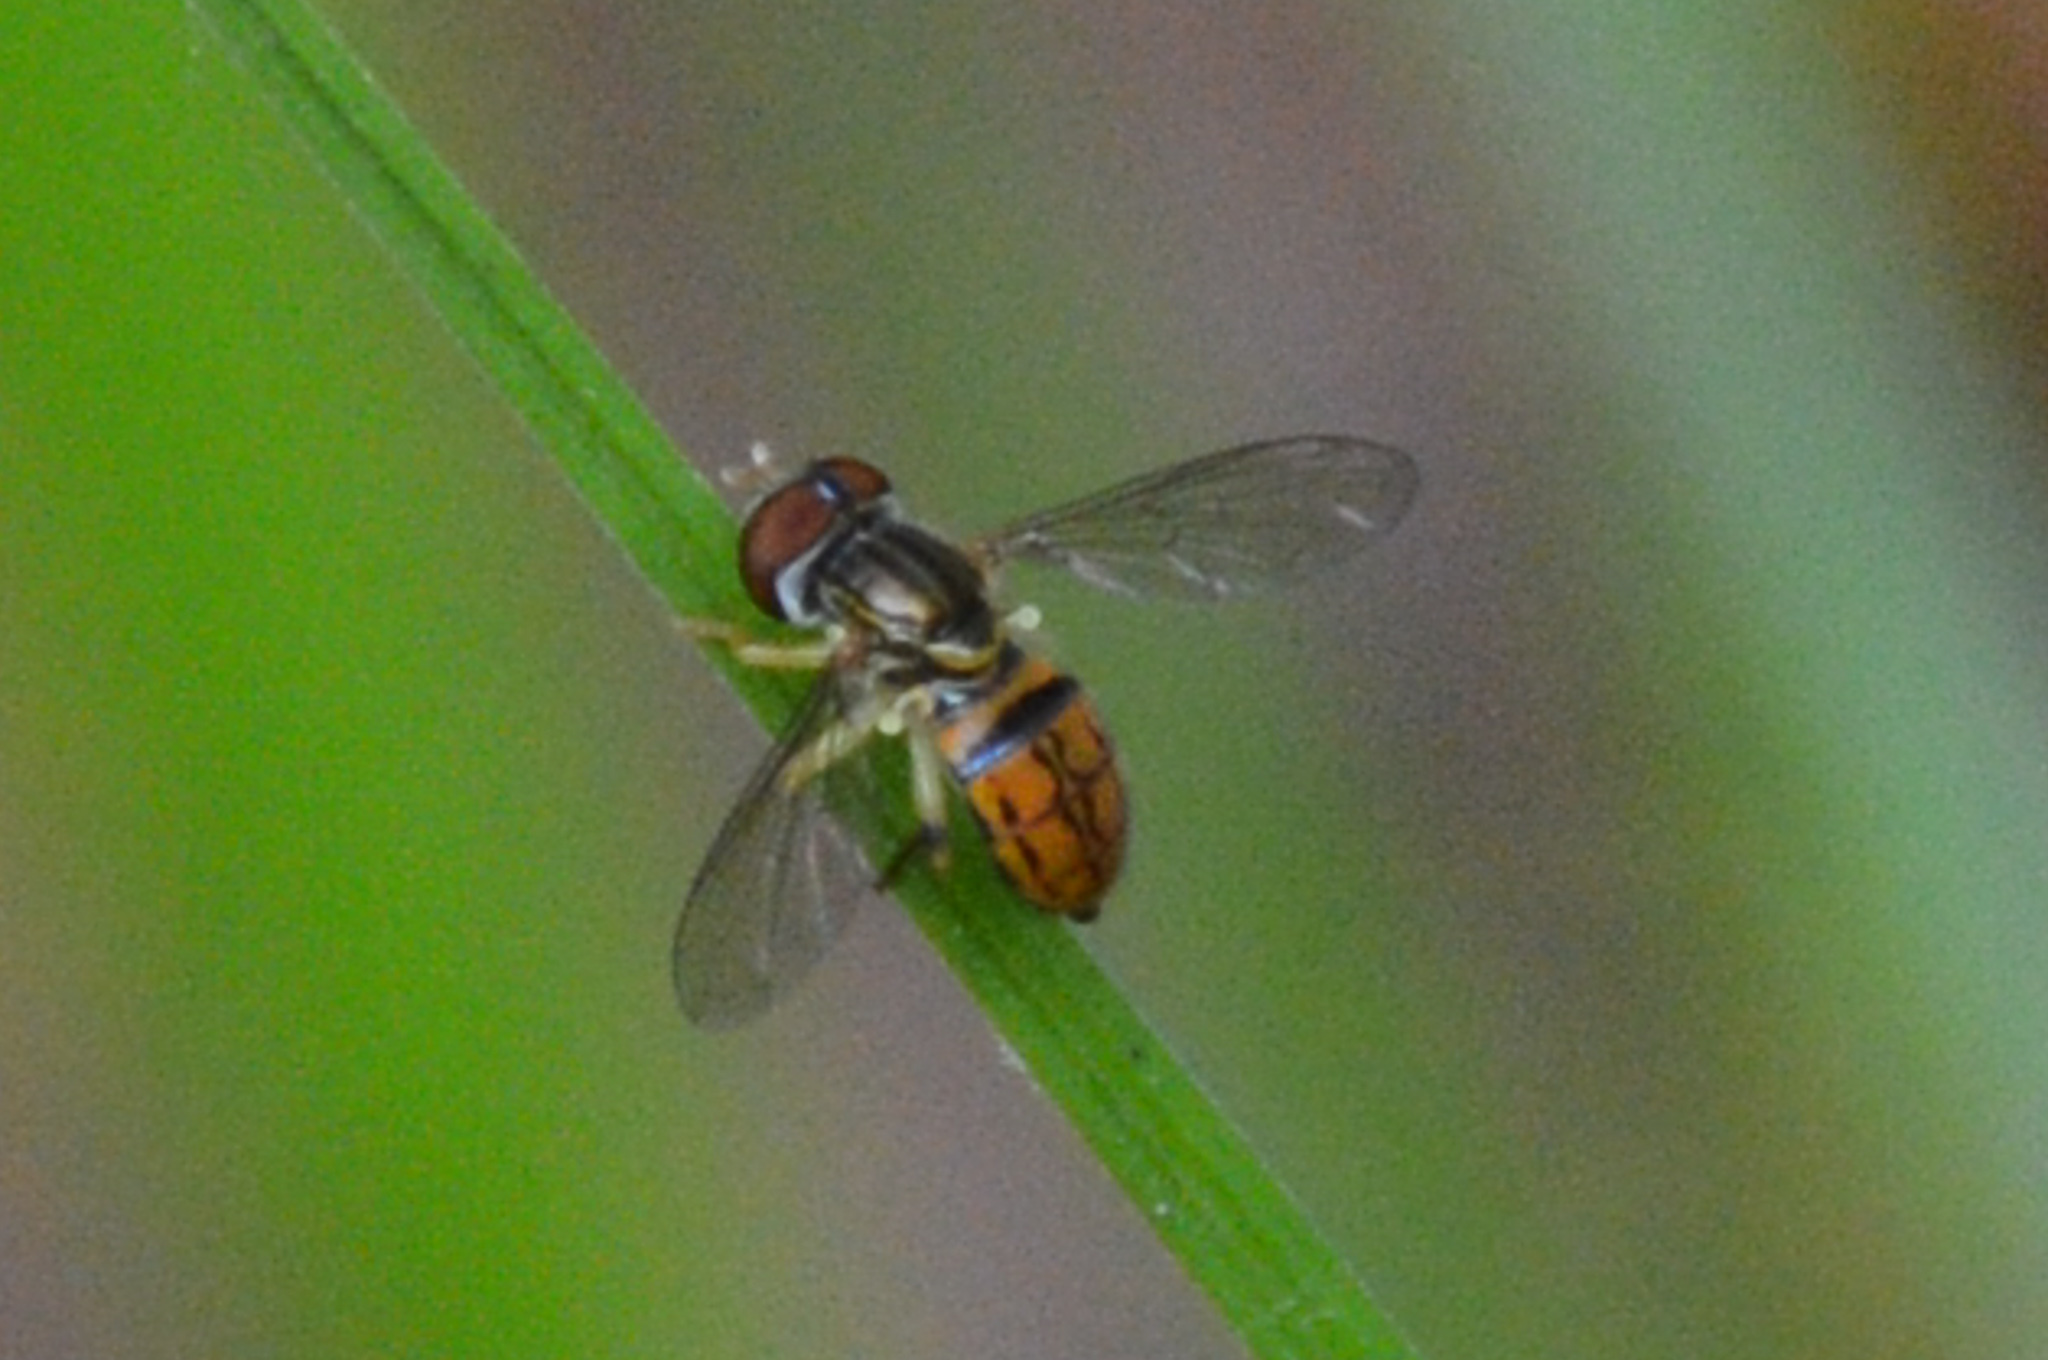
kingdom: Animalia
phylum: Arthropoda
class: Insecta
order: Diptera
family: Syrphidae
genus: Toxomerus
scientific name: Toxomerus boscii
